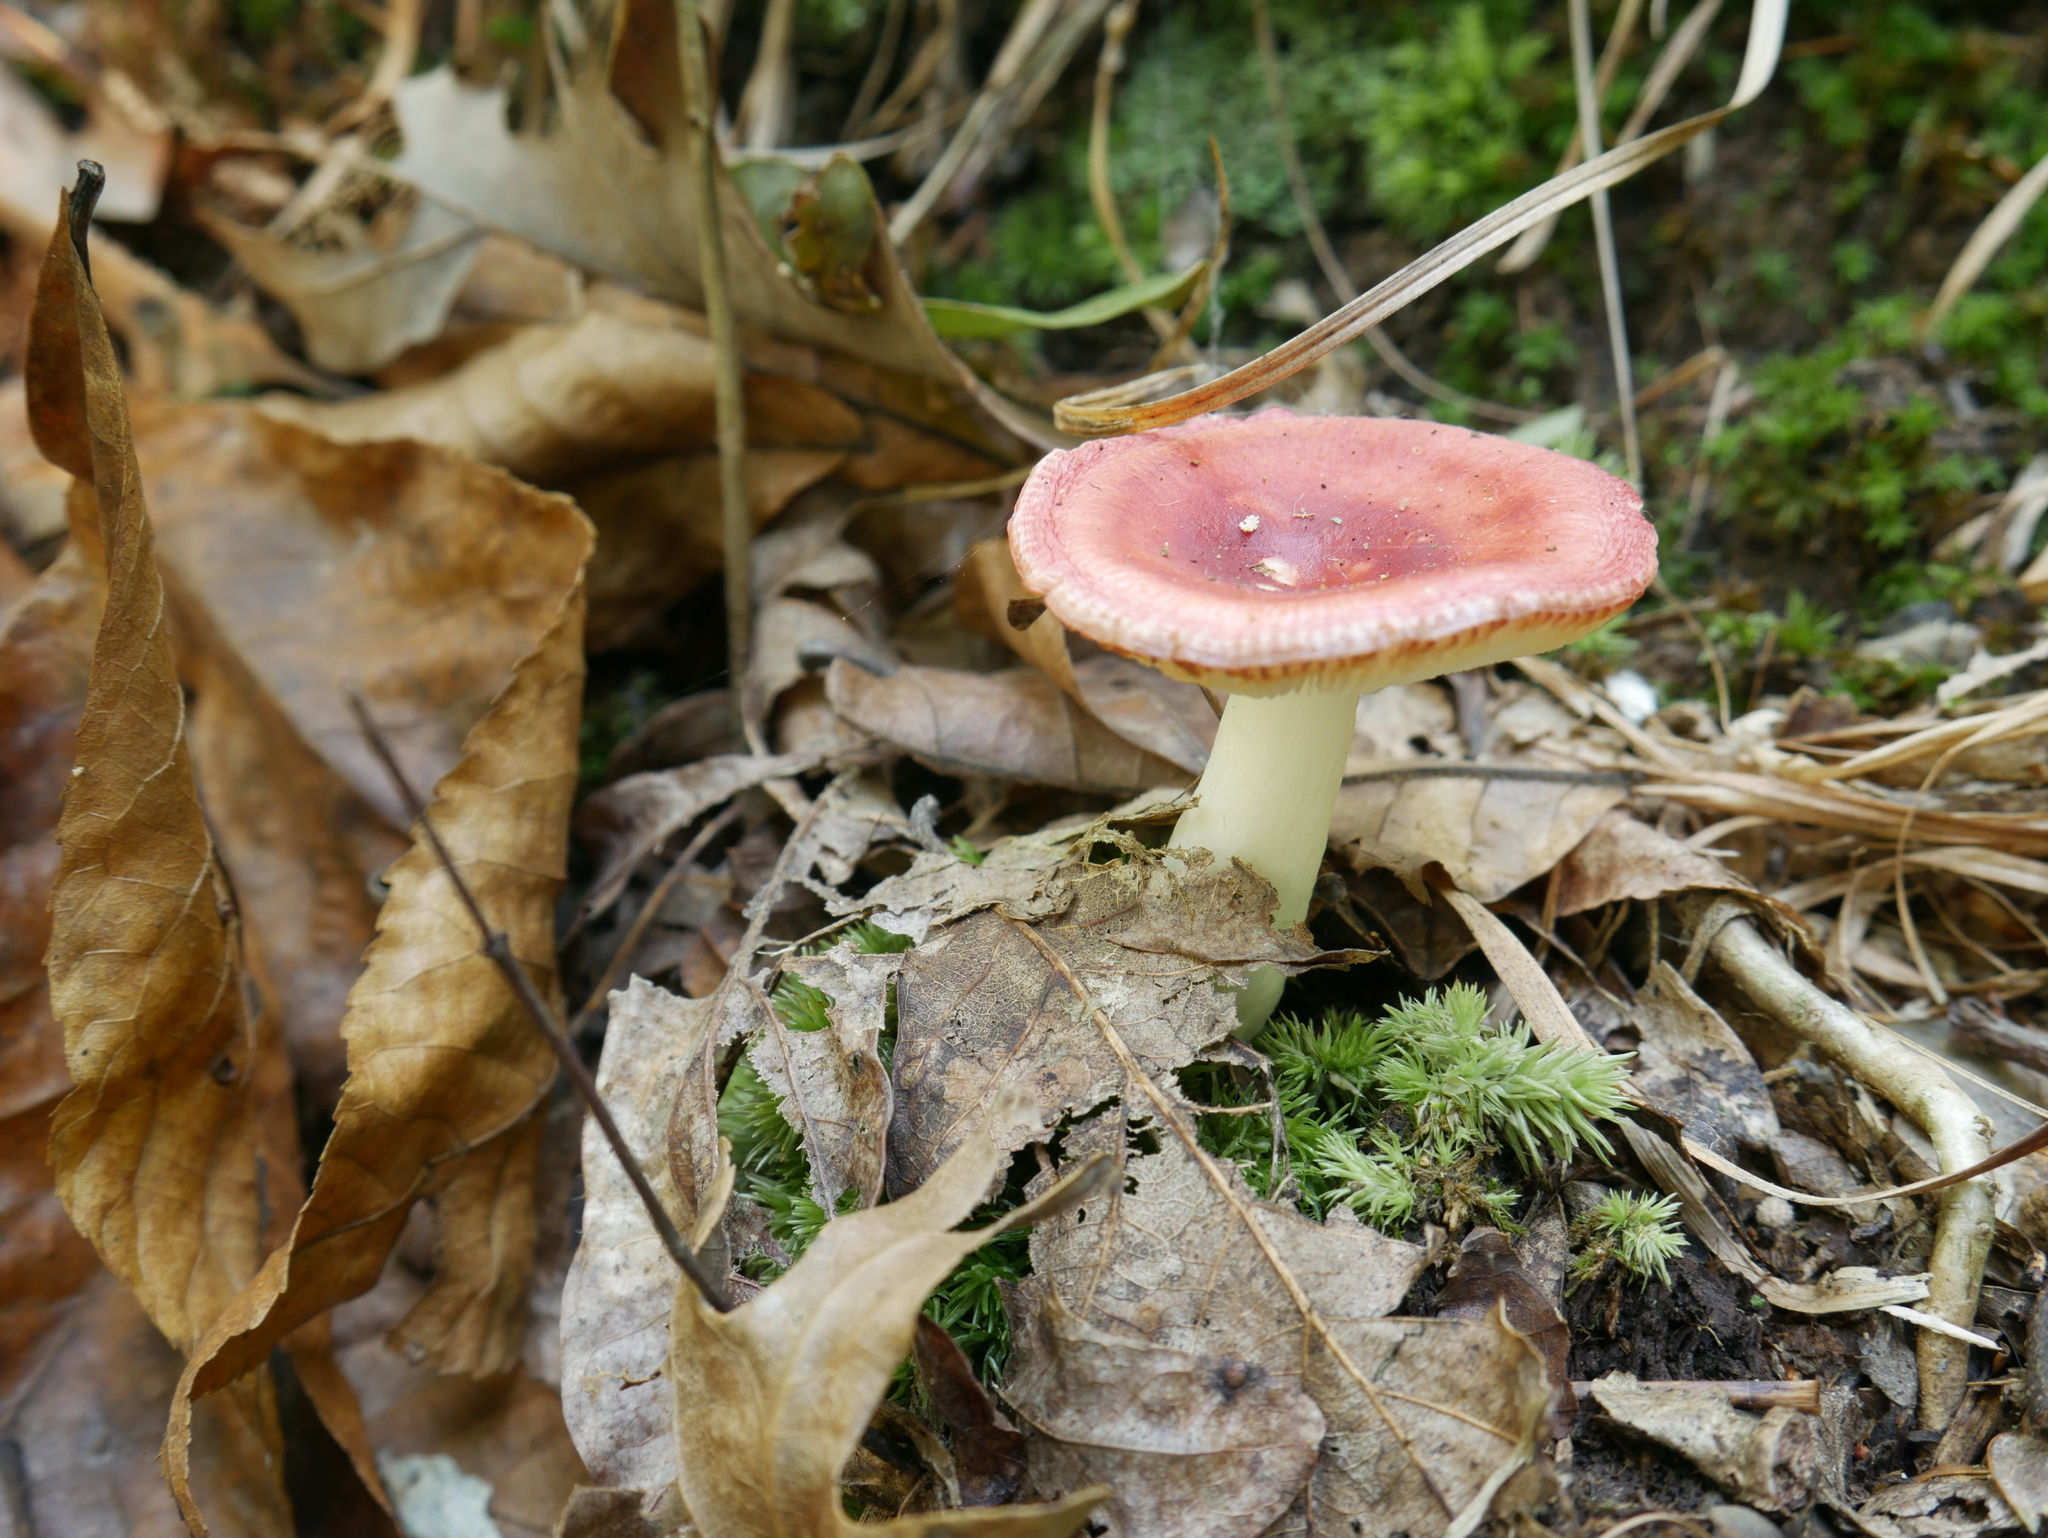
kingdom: Fungi
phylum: Basidiomycota
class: Agaricomycetes
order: Russulales
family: Russulaceae
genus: Russula
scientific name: Russula subemetica
